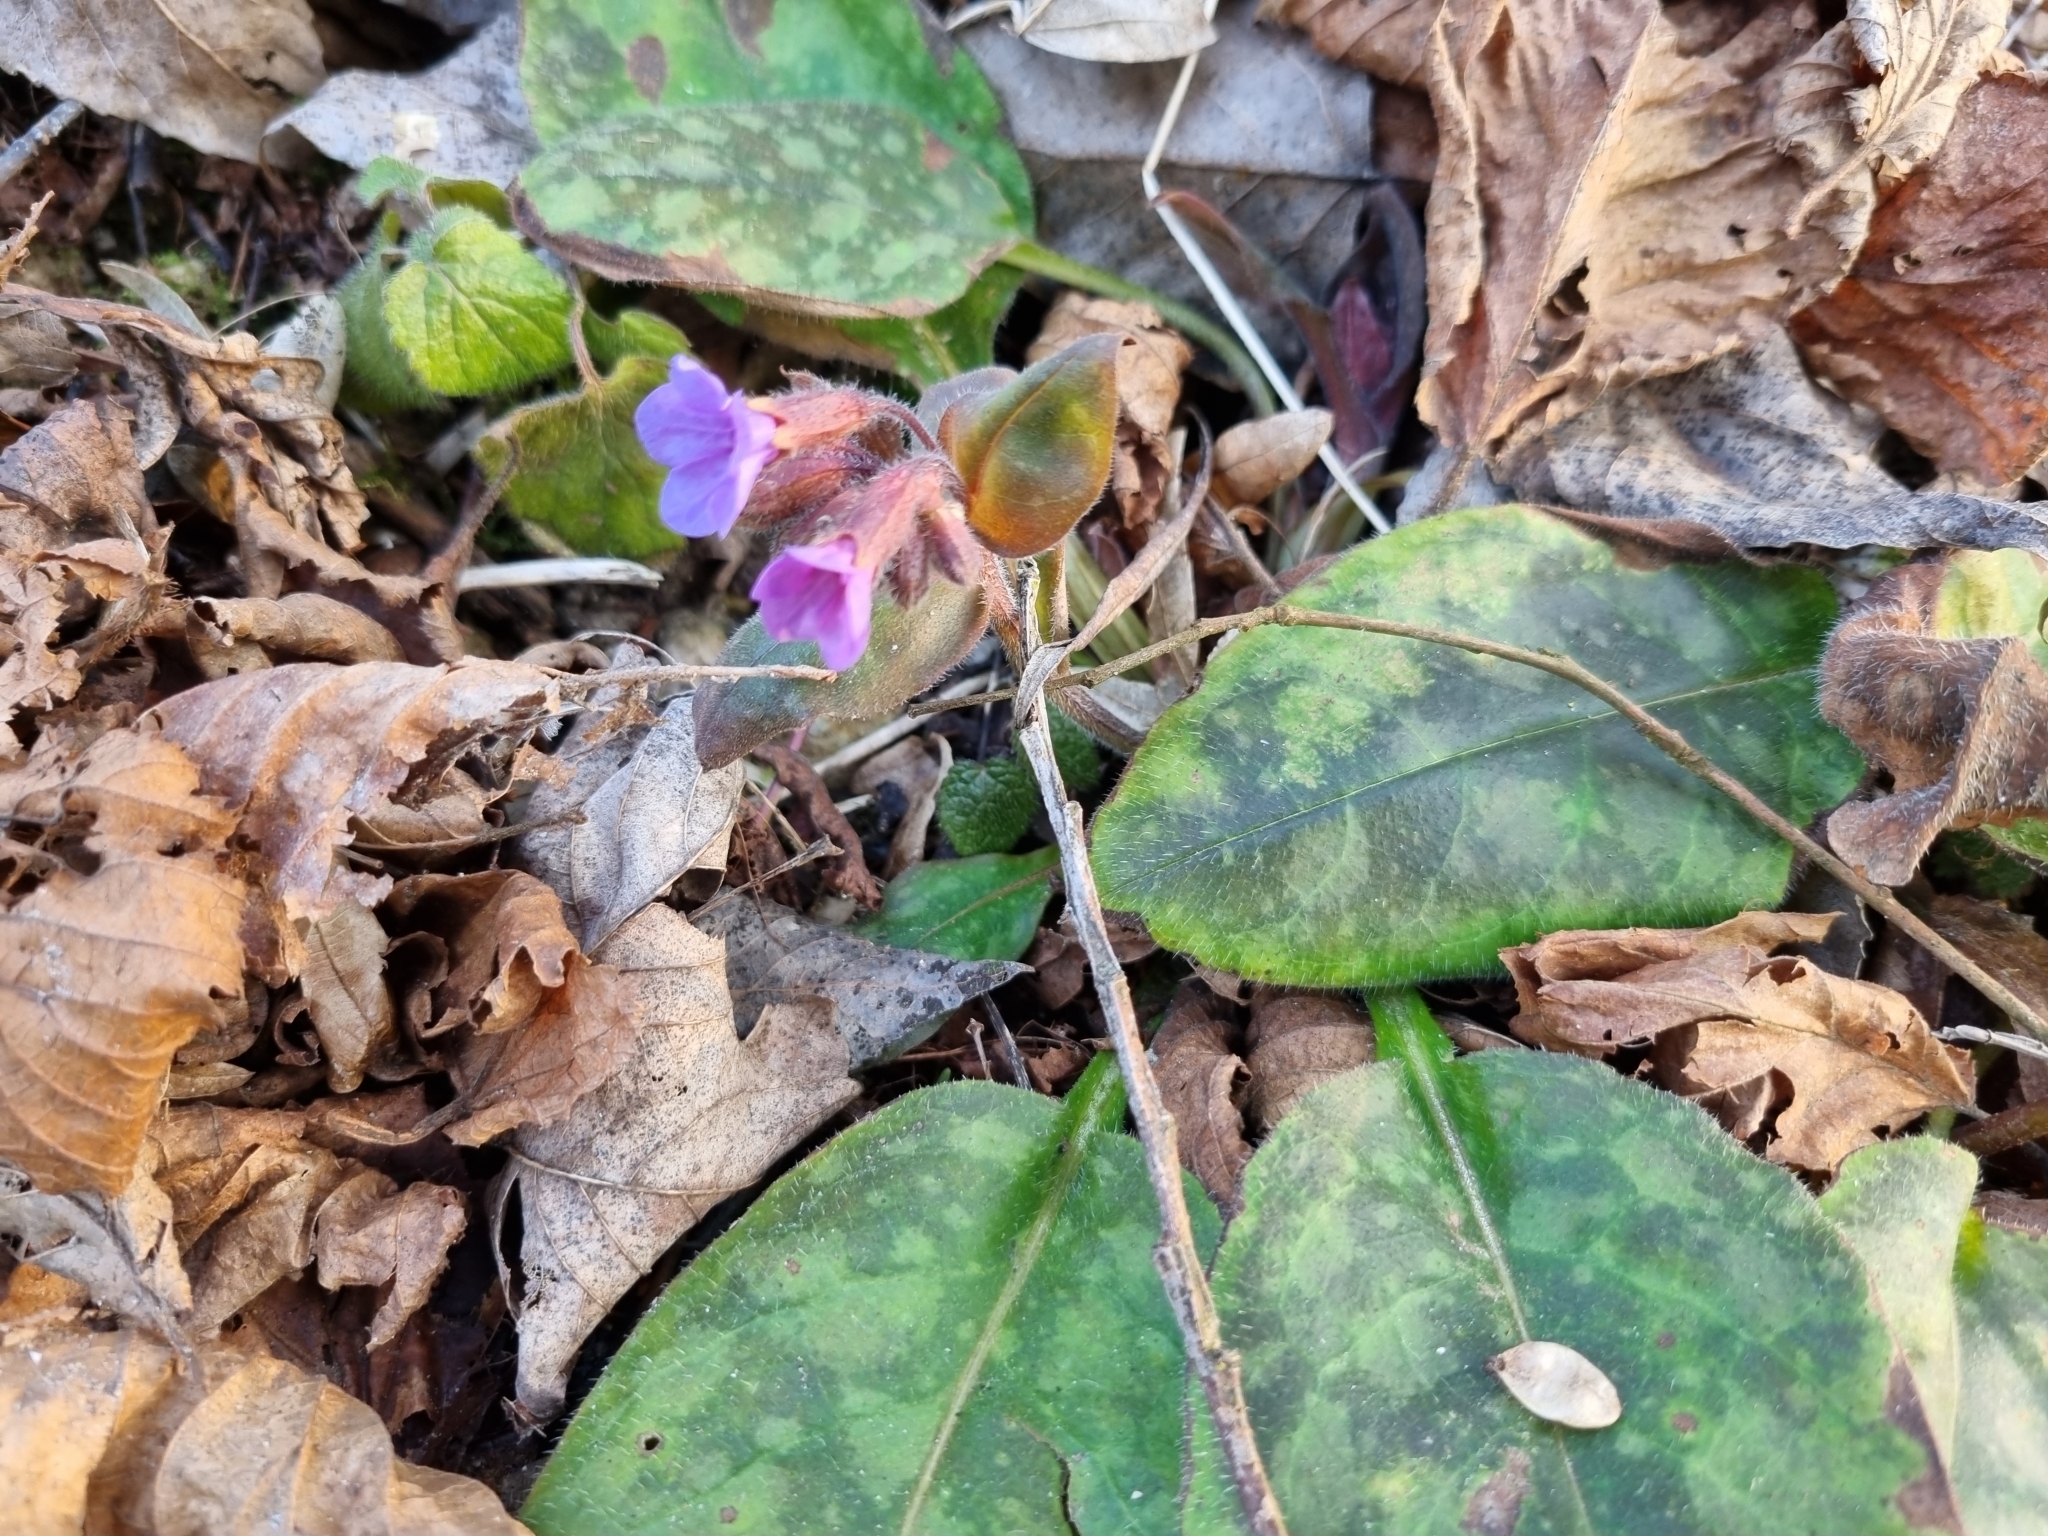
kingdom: Plantae
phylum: Tracheophyta
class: Magnoliopsida
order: Boraginales
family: Boraginaceae
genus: Pulmonaria
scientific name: Pulmonaria officinalis
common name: Lungwort
